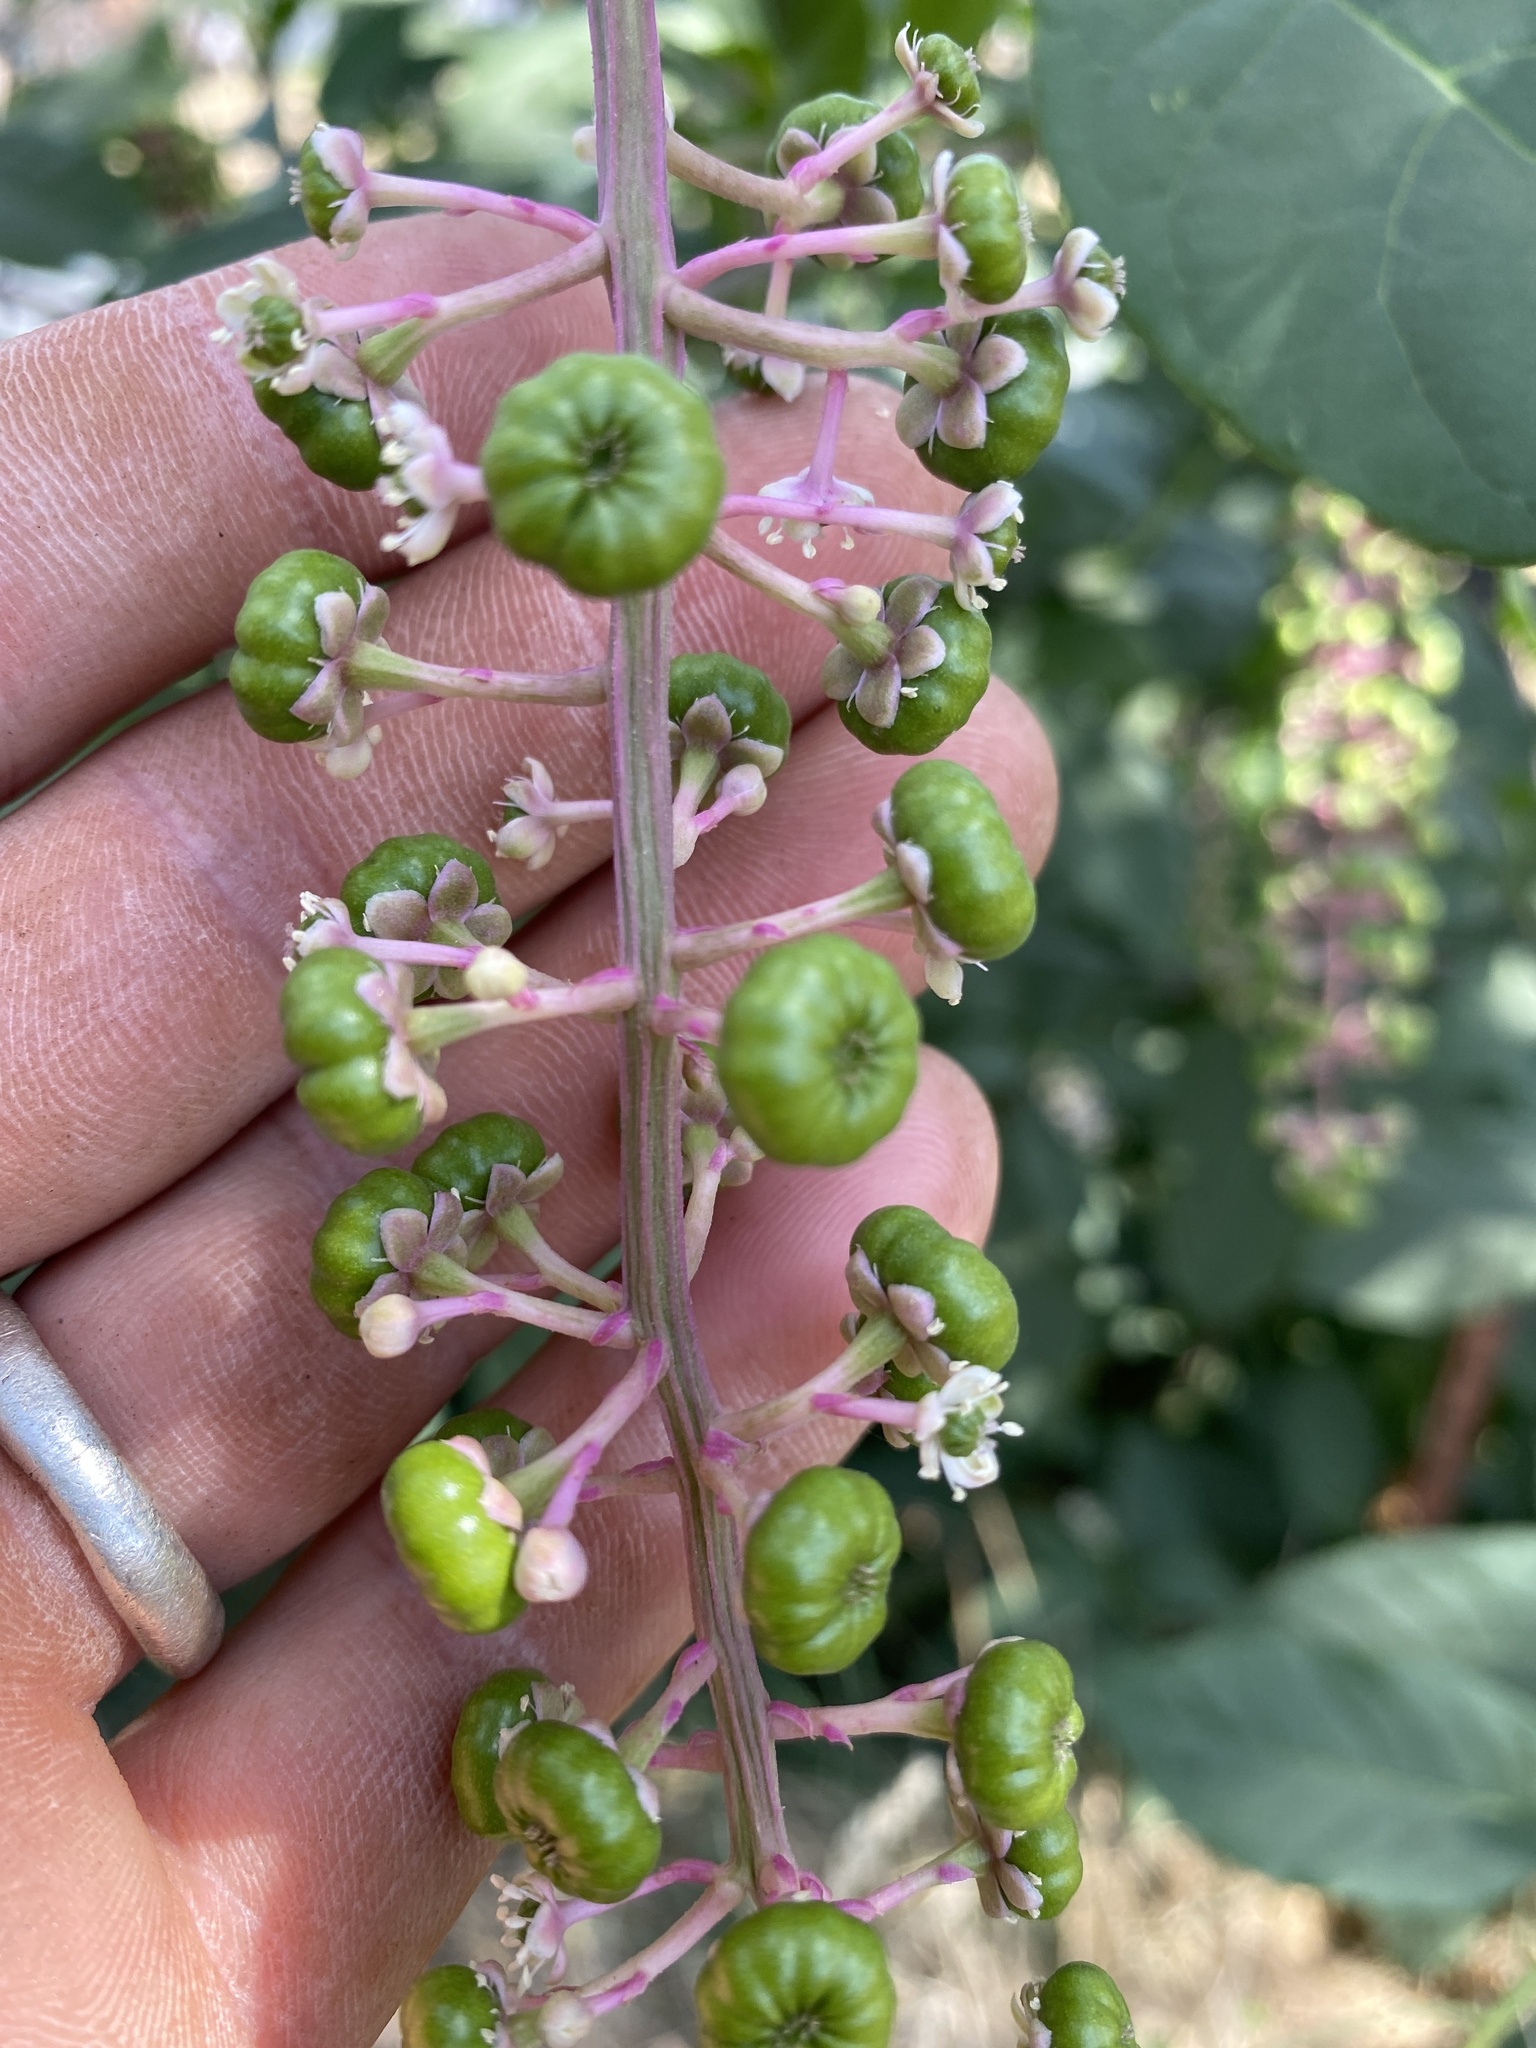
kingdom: Plantae
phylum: Tracheophyta
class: Magnoliopsida
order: Caryophyllales
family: Phytolaccaceae
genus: Phytolacca
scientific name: Phytolacca americana
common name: American pokeweed
